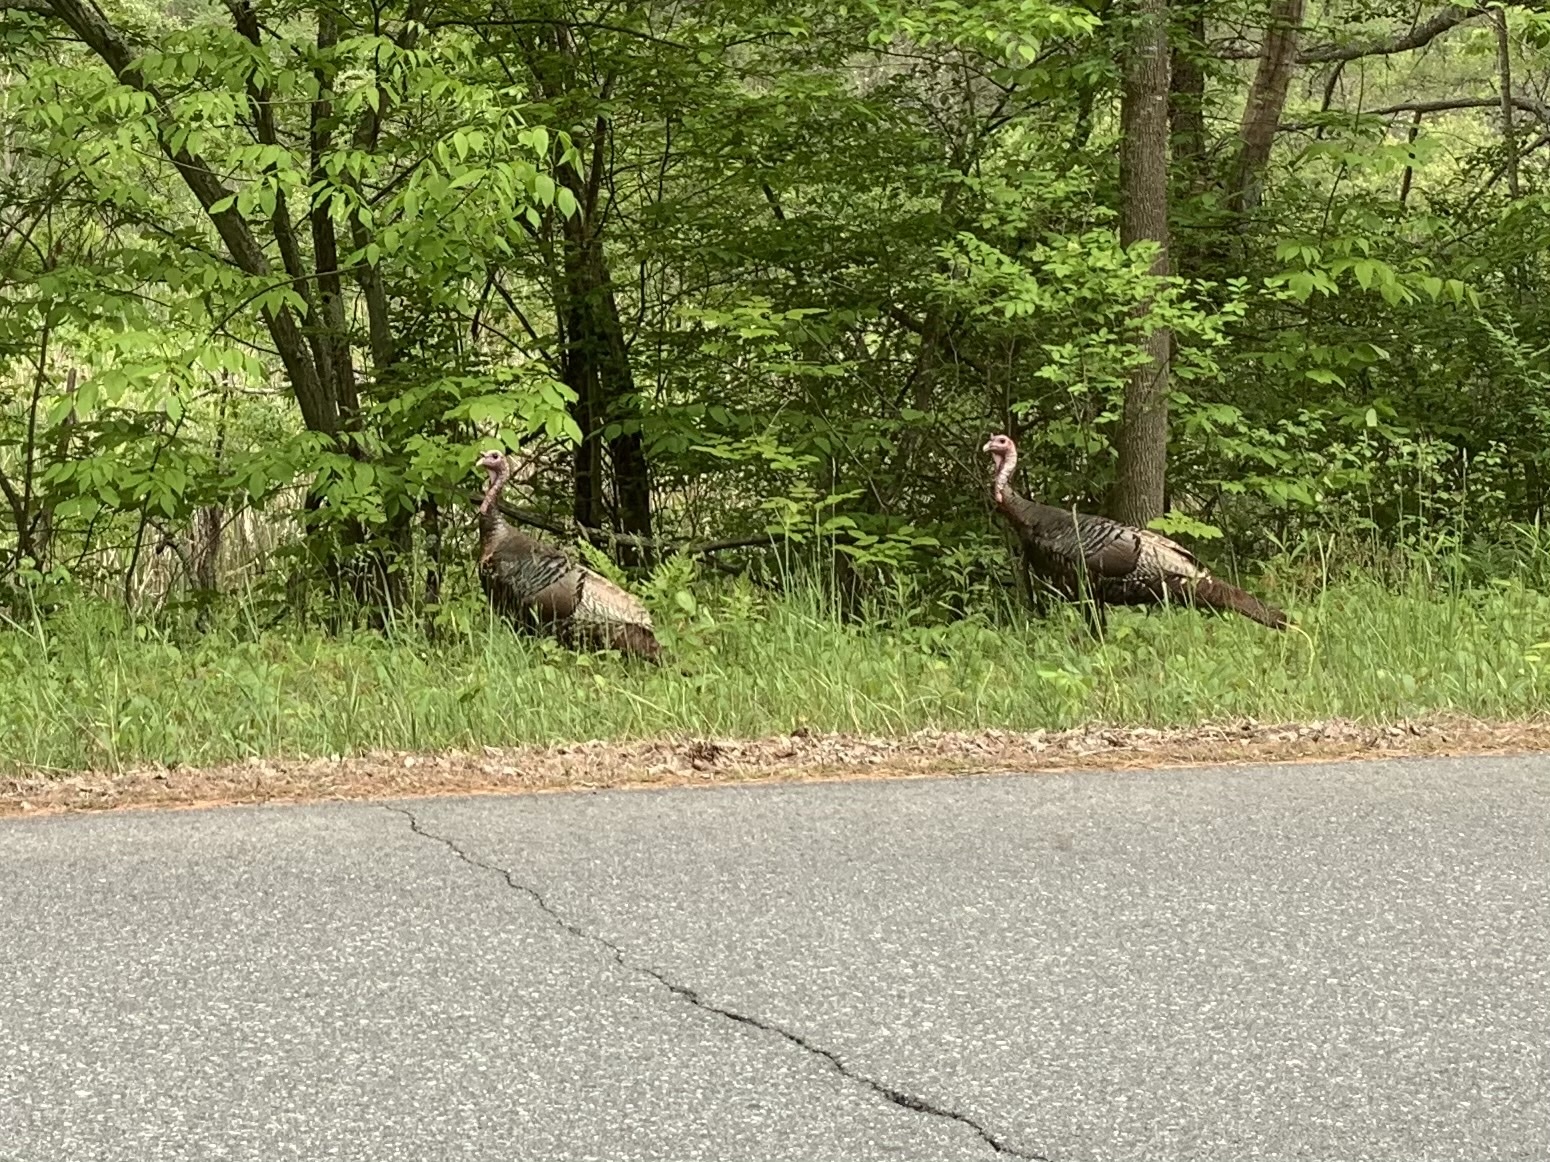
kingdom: Animalia
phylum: Chordata
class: Aves
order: Galliformes
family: Phasianidae
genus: Meleagris
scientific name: Meleagris gallopavo
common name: Wild turkey
